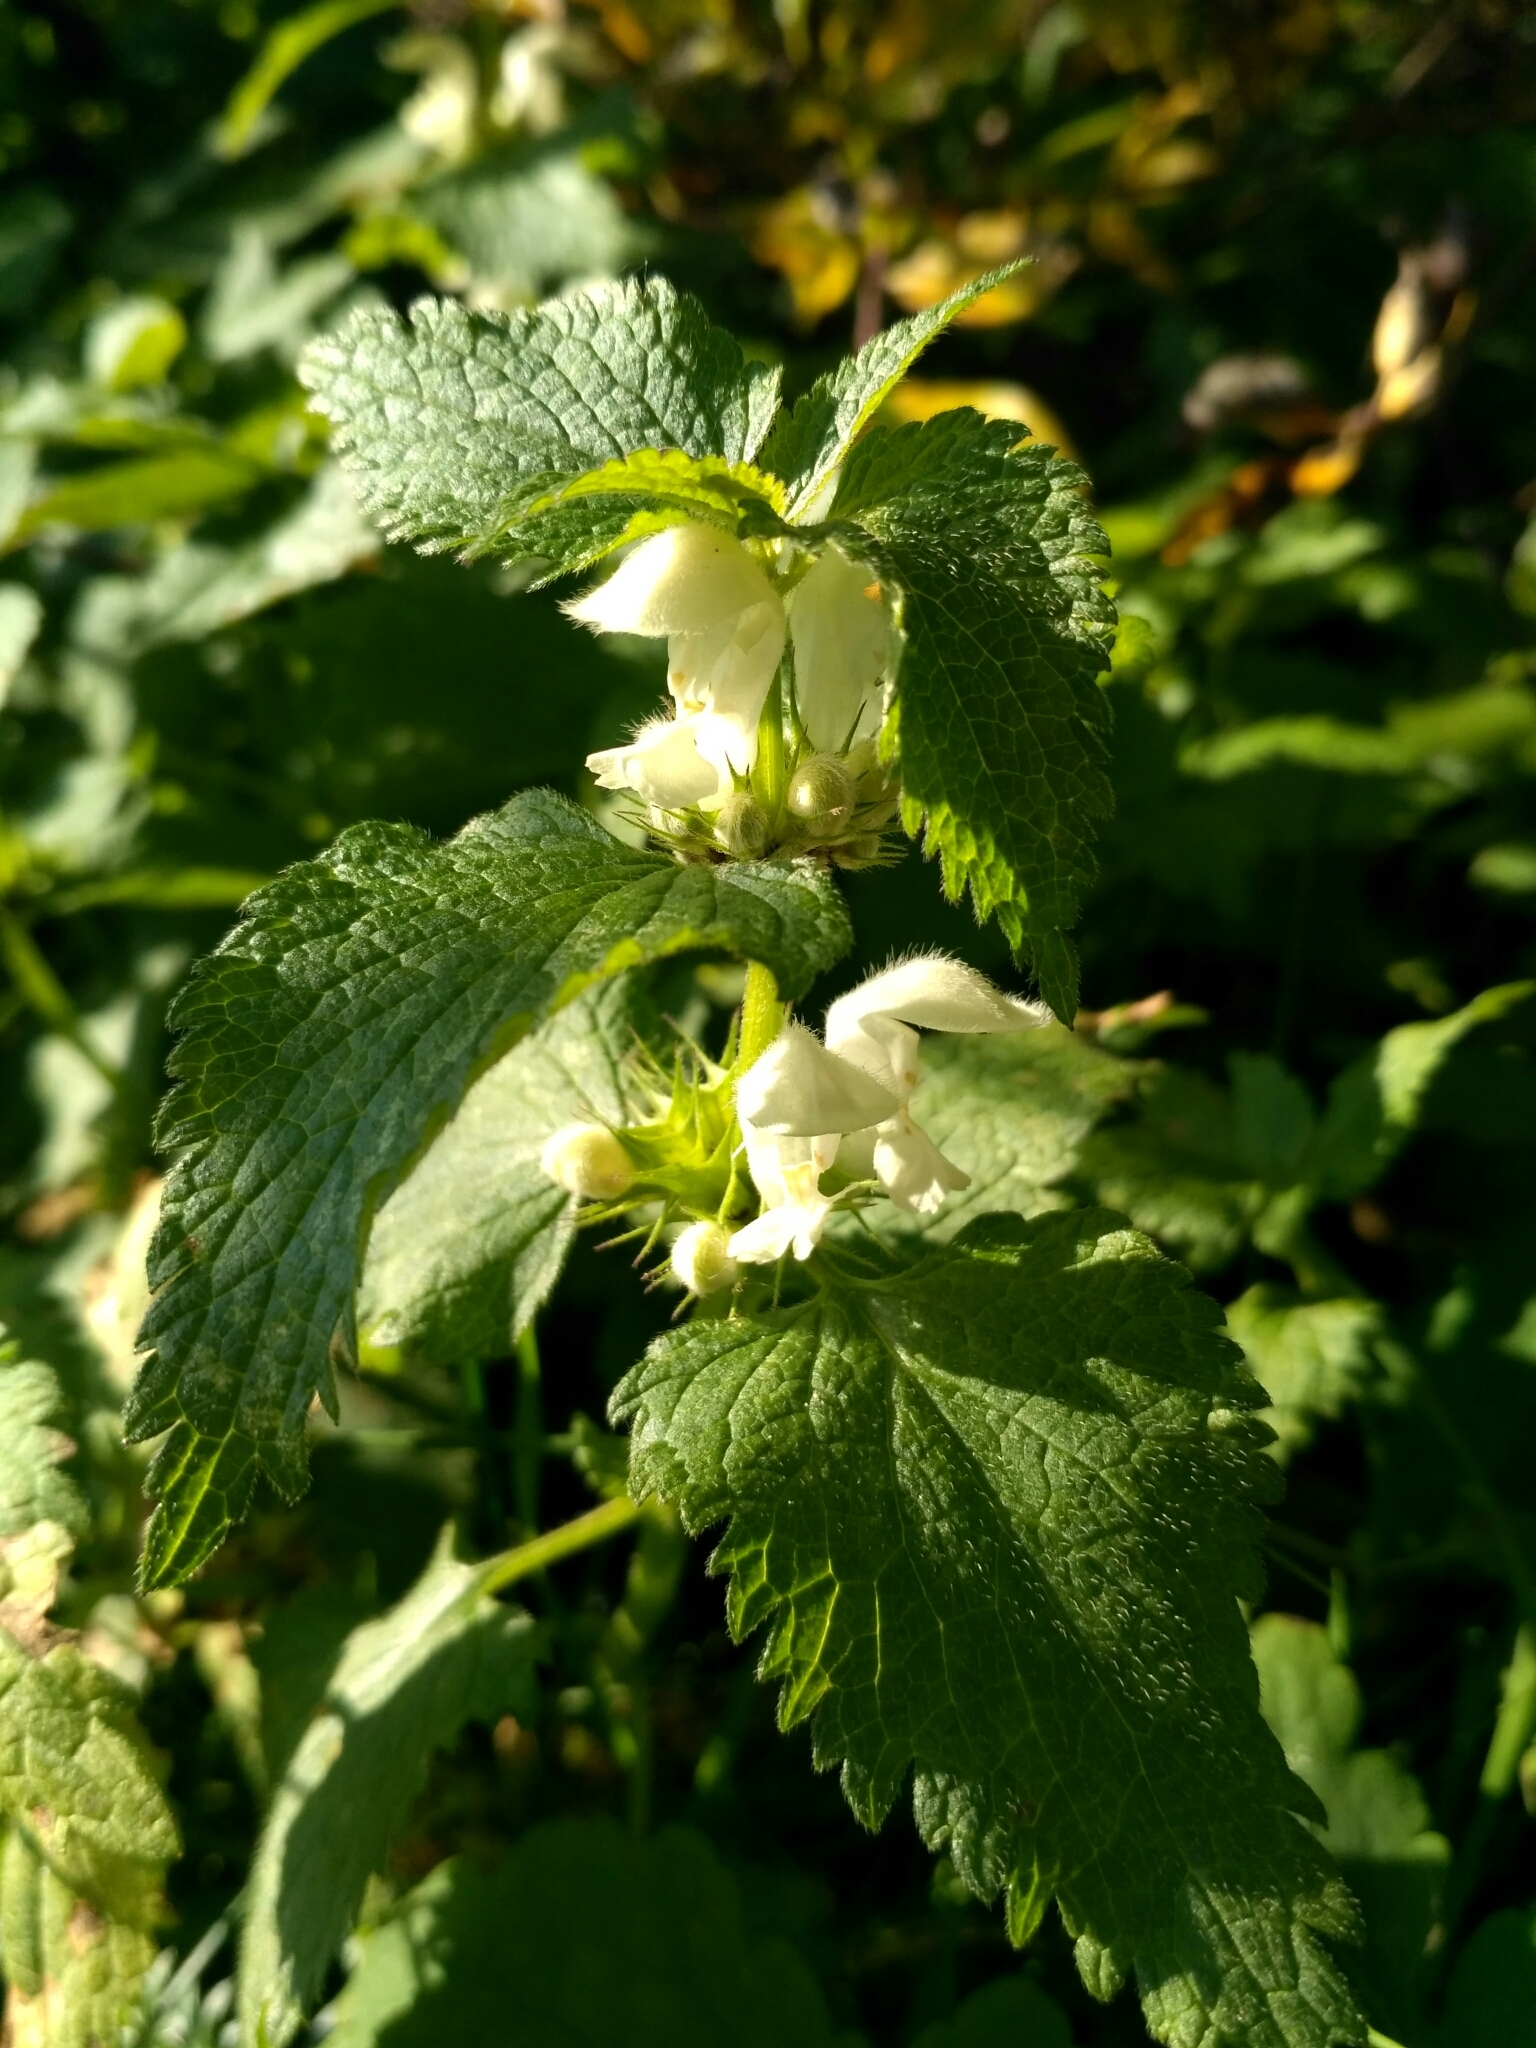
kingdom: Plantae
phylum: Tracheophyta
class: Magnoliopsida
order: Lamiales
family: Lamiaceae
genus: Lamium
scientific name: Lamium album
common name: White dead-nettle
